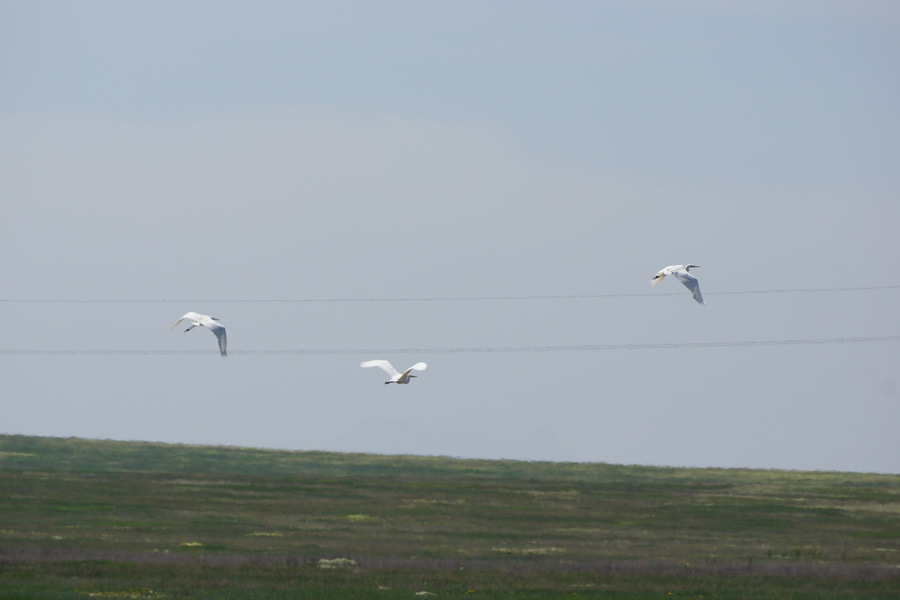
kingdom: Animalia
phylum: Chordata
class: Aves
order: Pelecaniformes
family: Ardeidae
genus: Ardea
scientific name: Ardea alba
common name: Great egret
